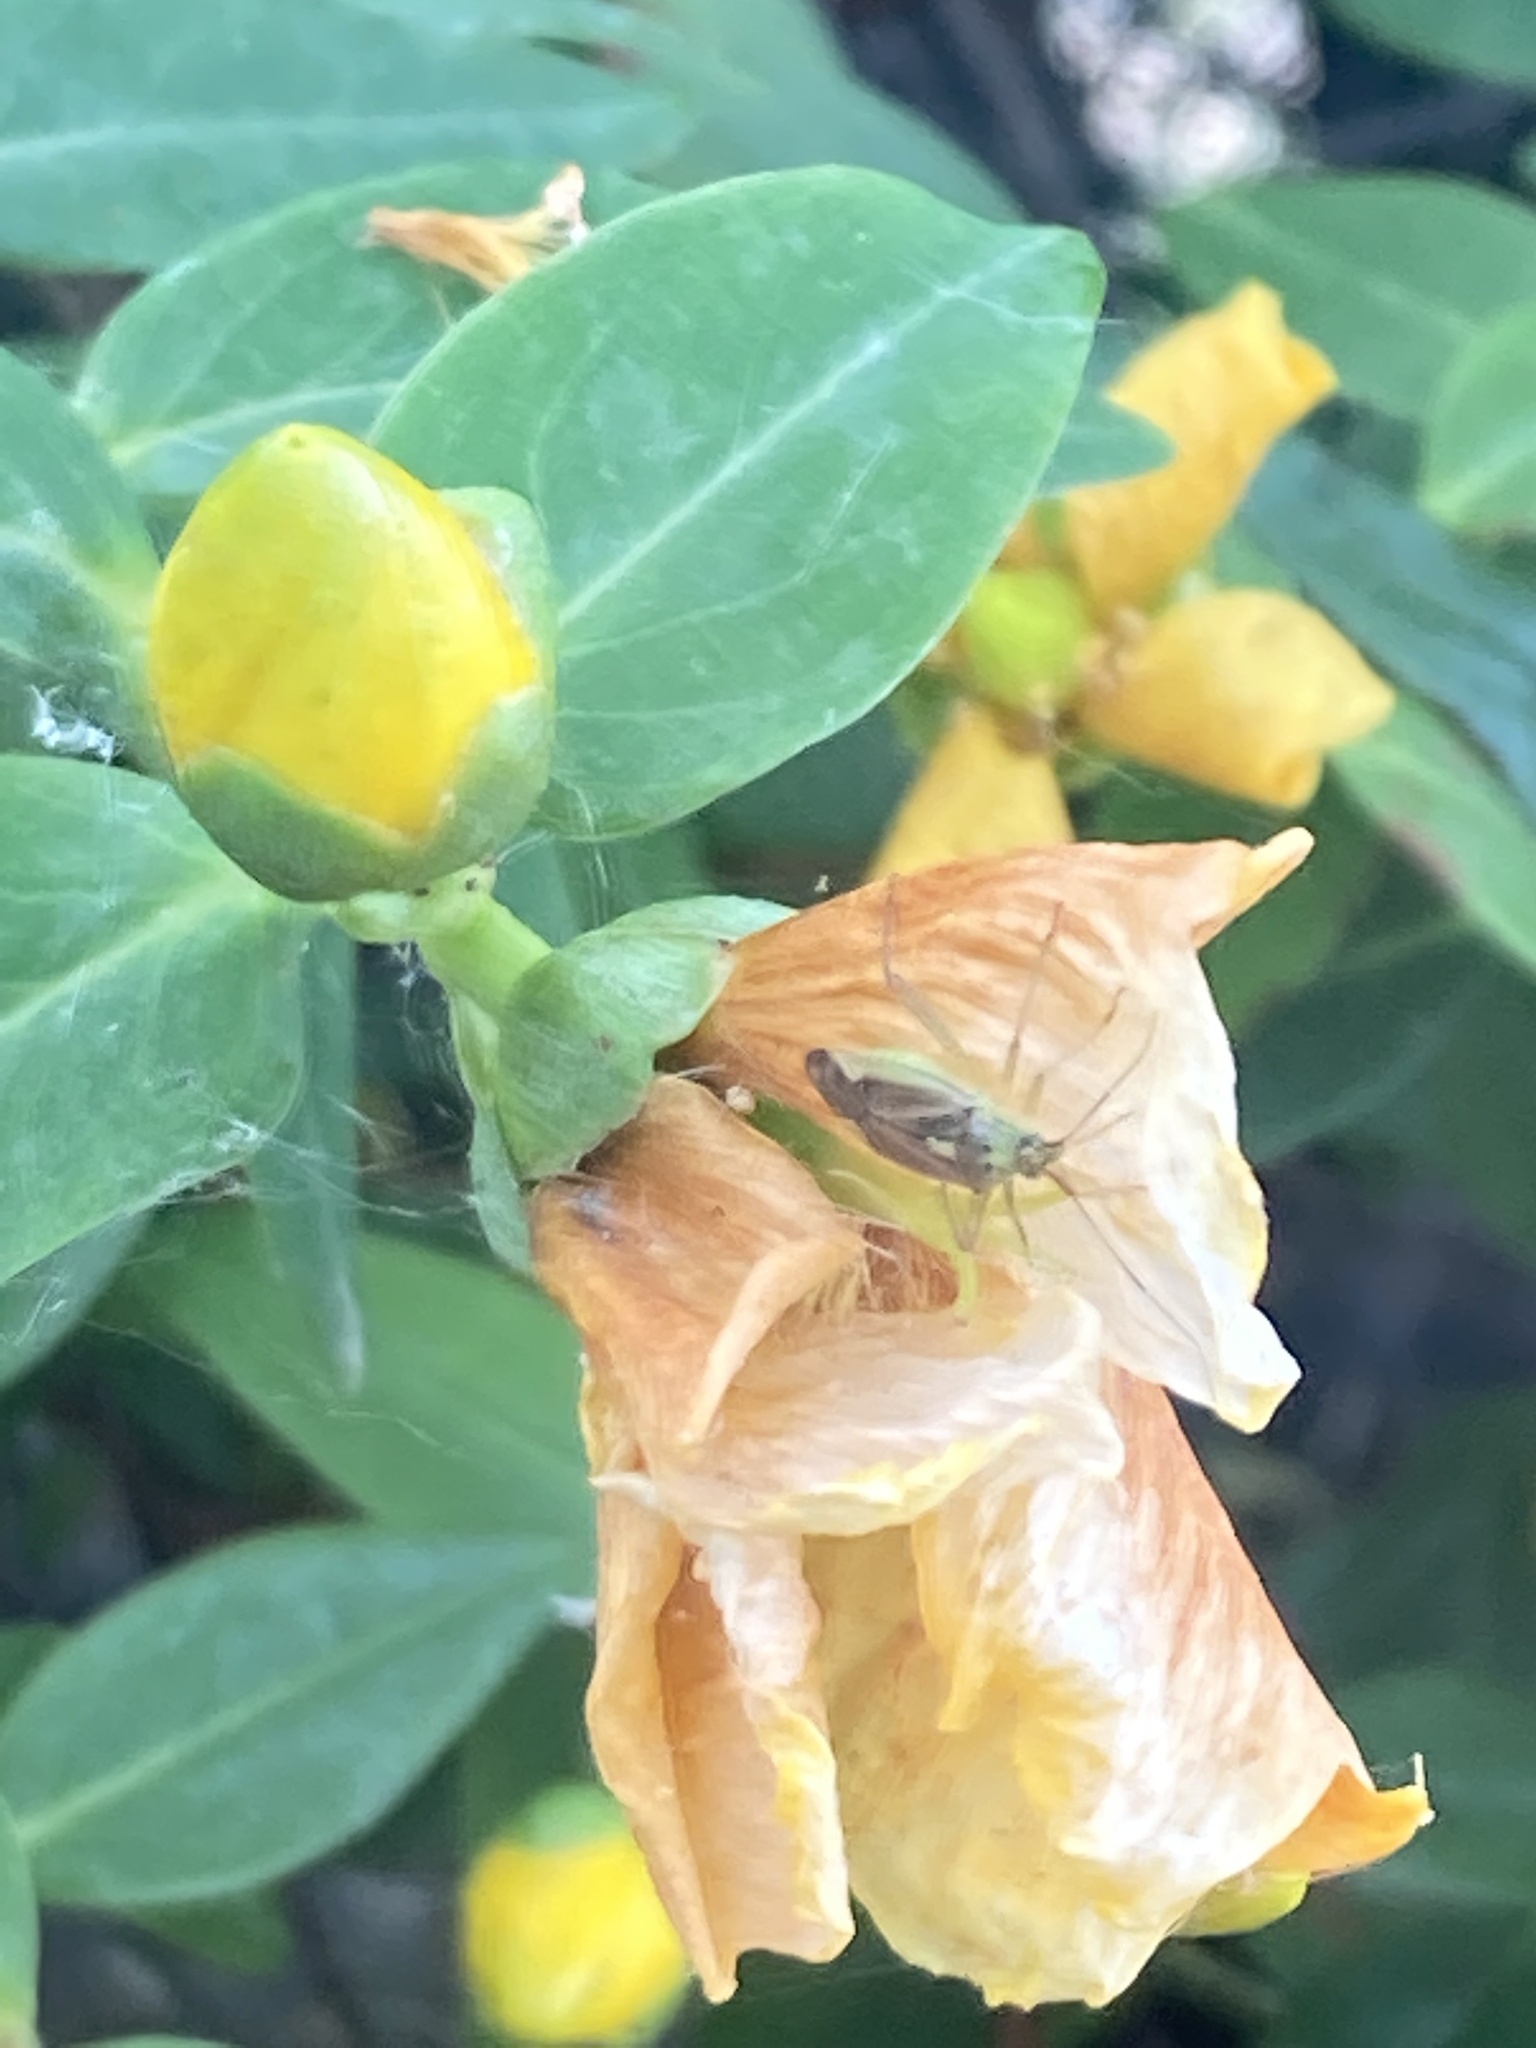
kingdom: Animalia
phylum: Arthropoda
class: Insecta
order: Hemiptera
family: Miridae
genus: Closterotomus
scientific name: Closterotomus trivialis
